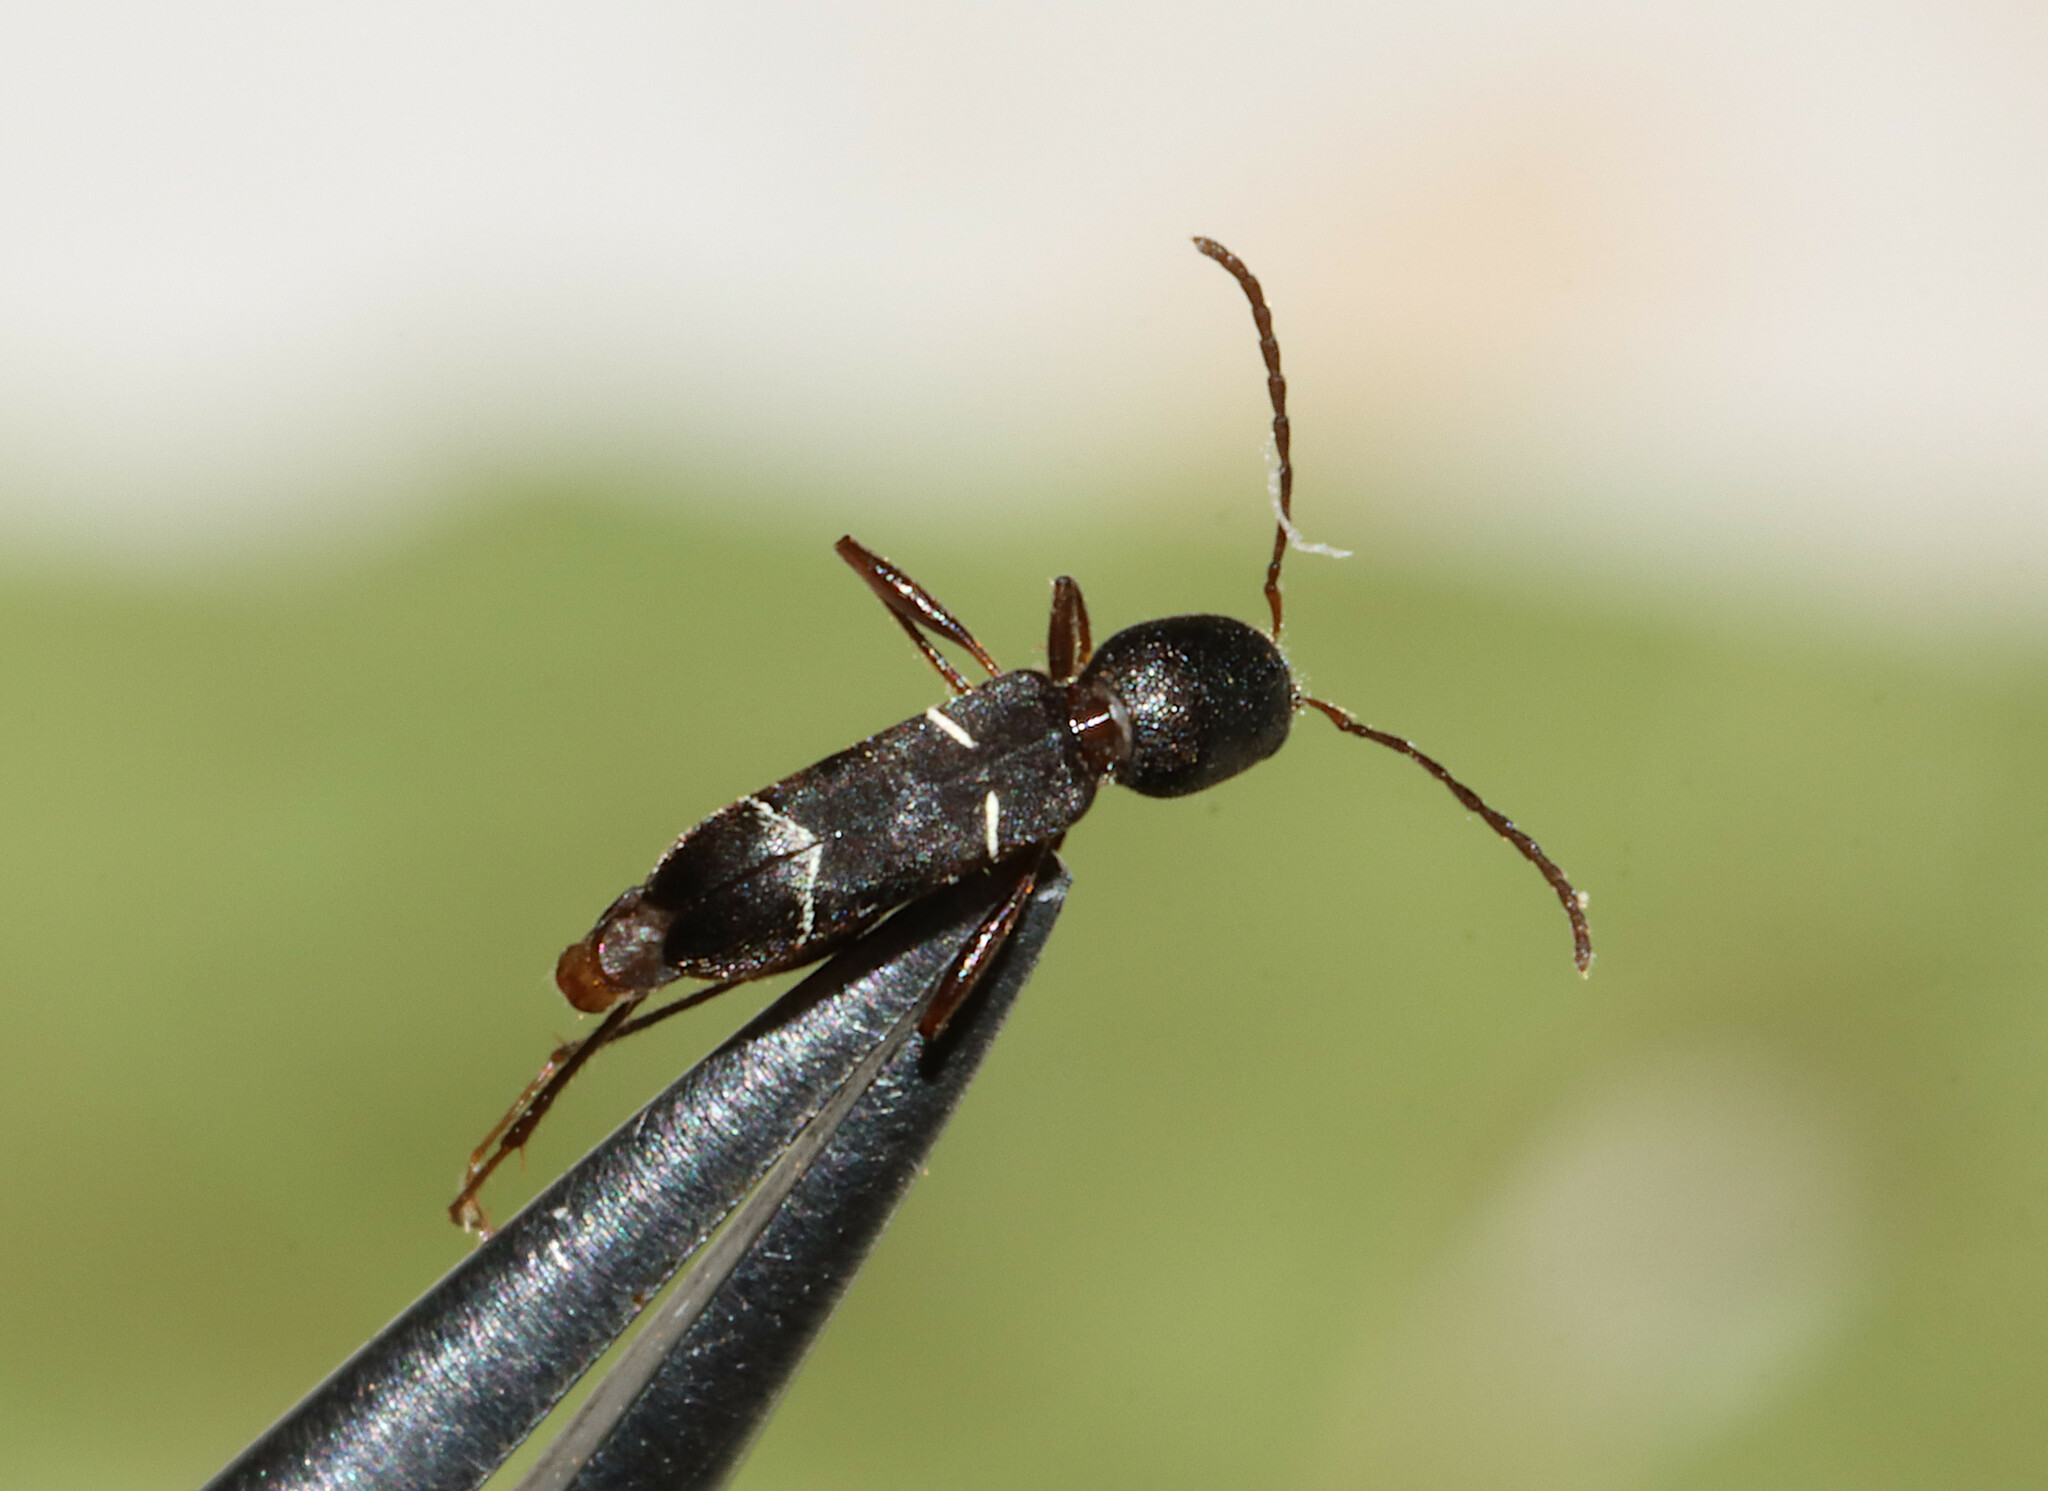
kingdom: Animalia
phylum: Arthropoda
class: Insecta
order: Coleoptera
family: Cerambycidae
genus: Neoclytus
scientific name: Neoclytus jouteli
